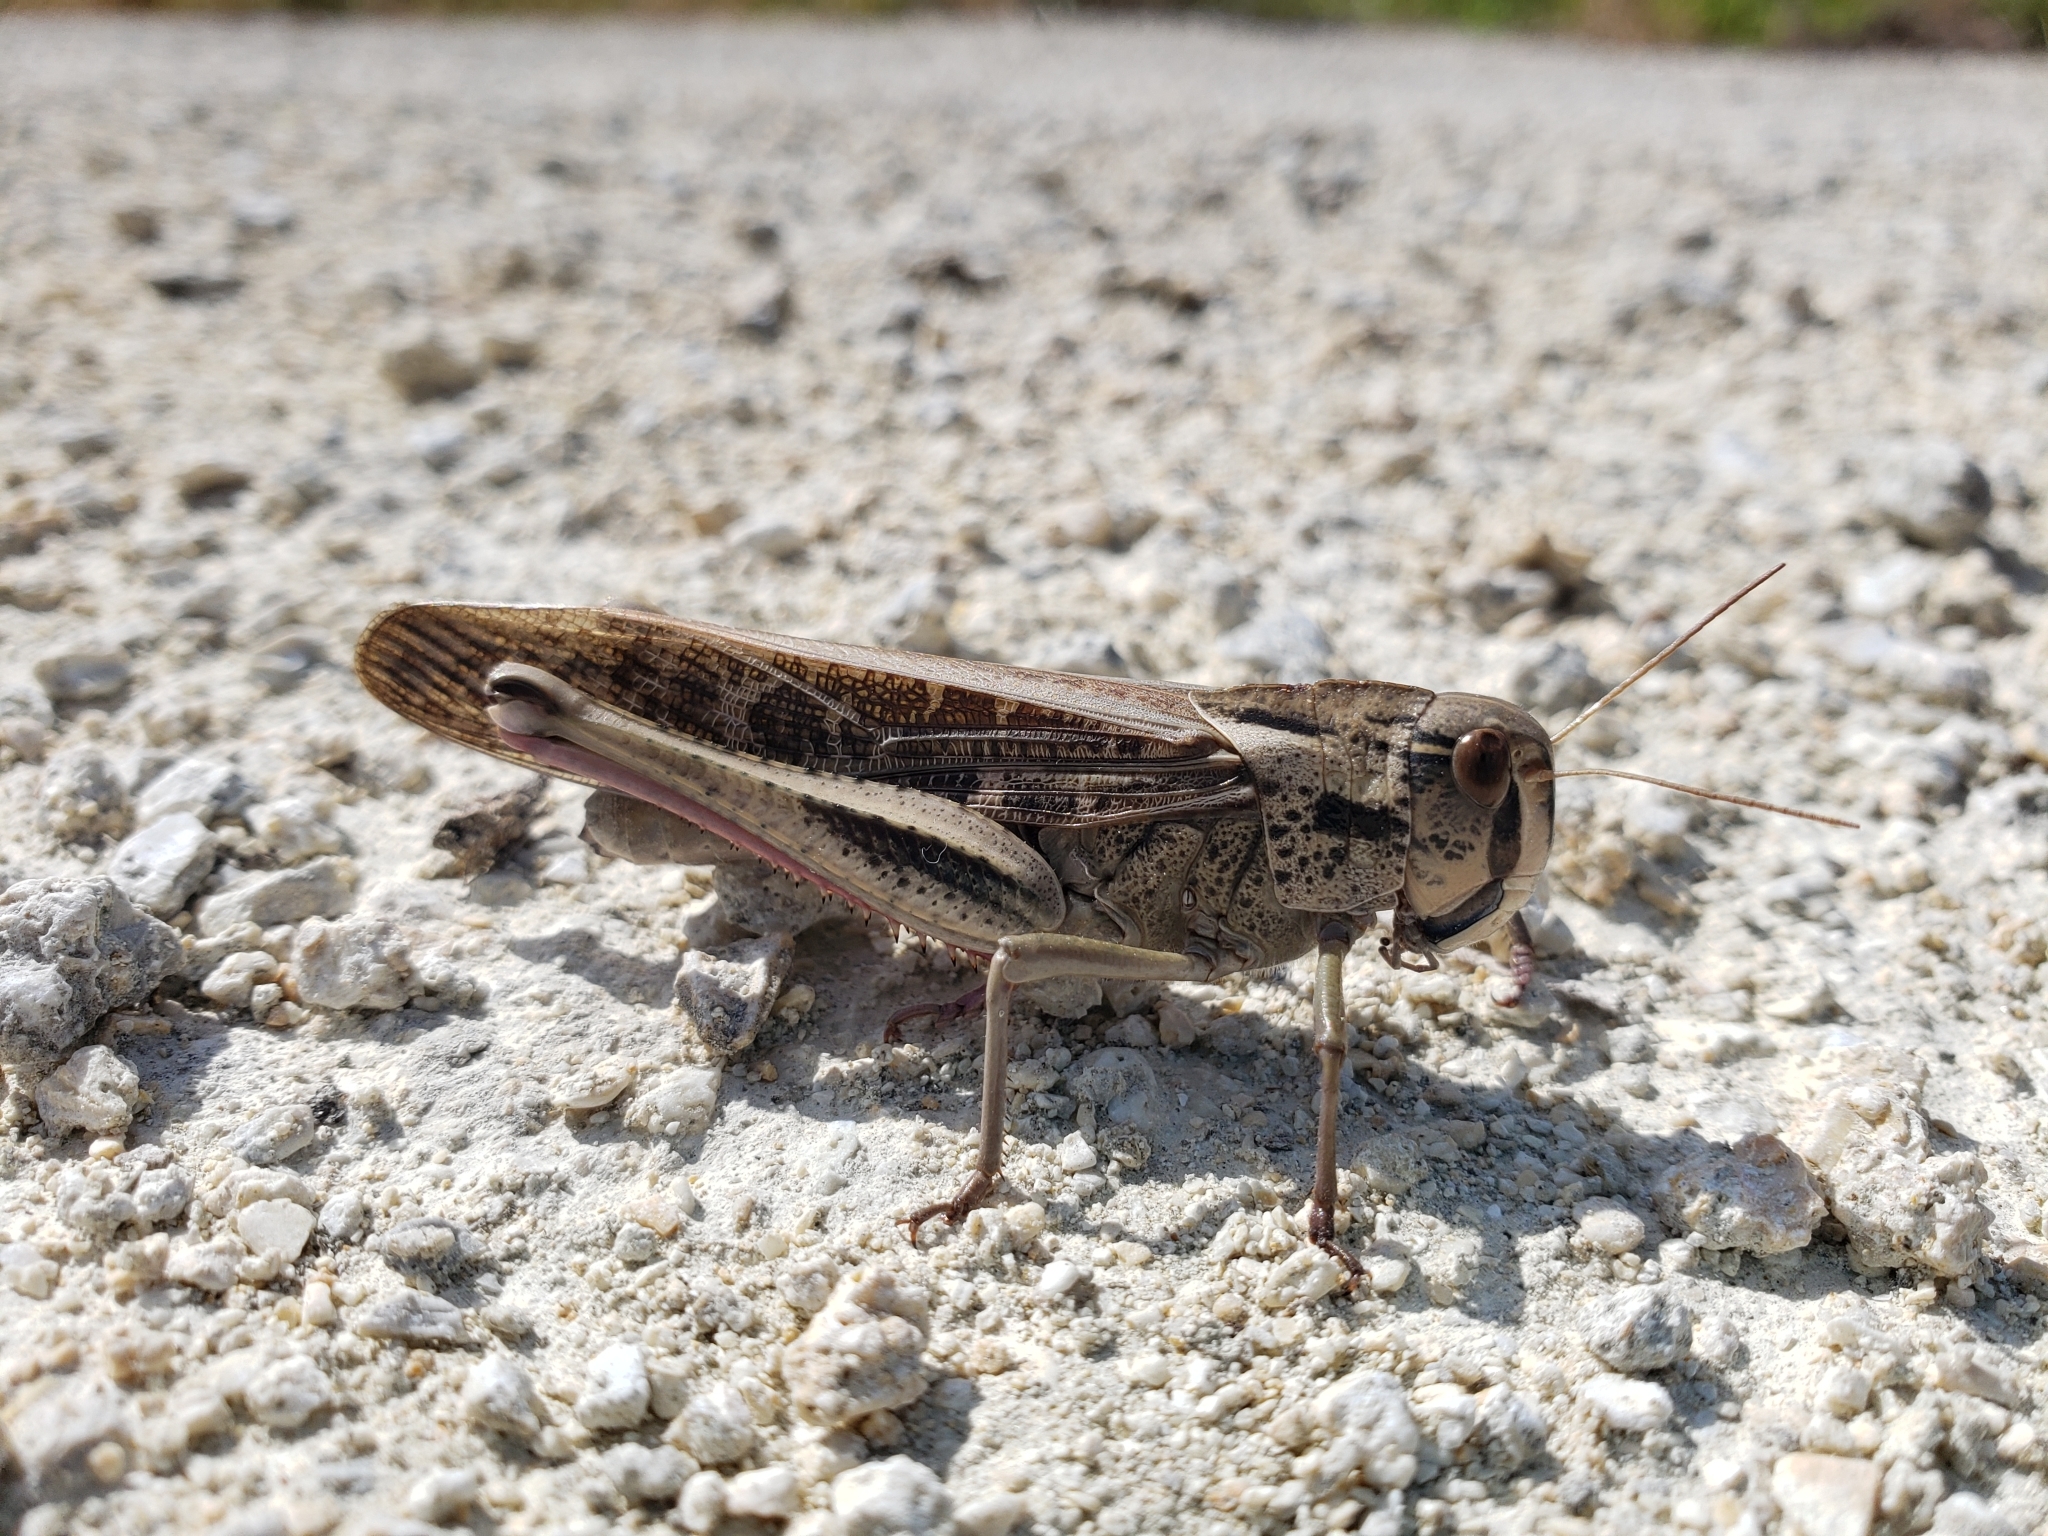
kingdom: Animalia
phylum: Arthropoda
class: Insecta
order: Orthoptera
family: Acrididae
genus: Locusta
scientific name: Locusta migratoria
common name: Migratory locust
